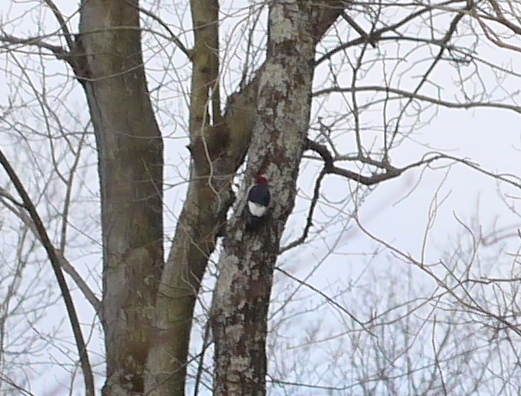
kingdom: Animalia
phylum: Chordata
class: Aves
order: Piciformes
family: Picidae
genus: Melanerpes
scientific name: Melanerpes erythrocephalus
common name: Red-headed woodpecker
